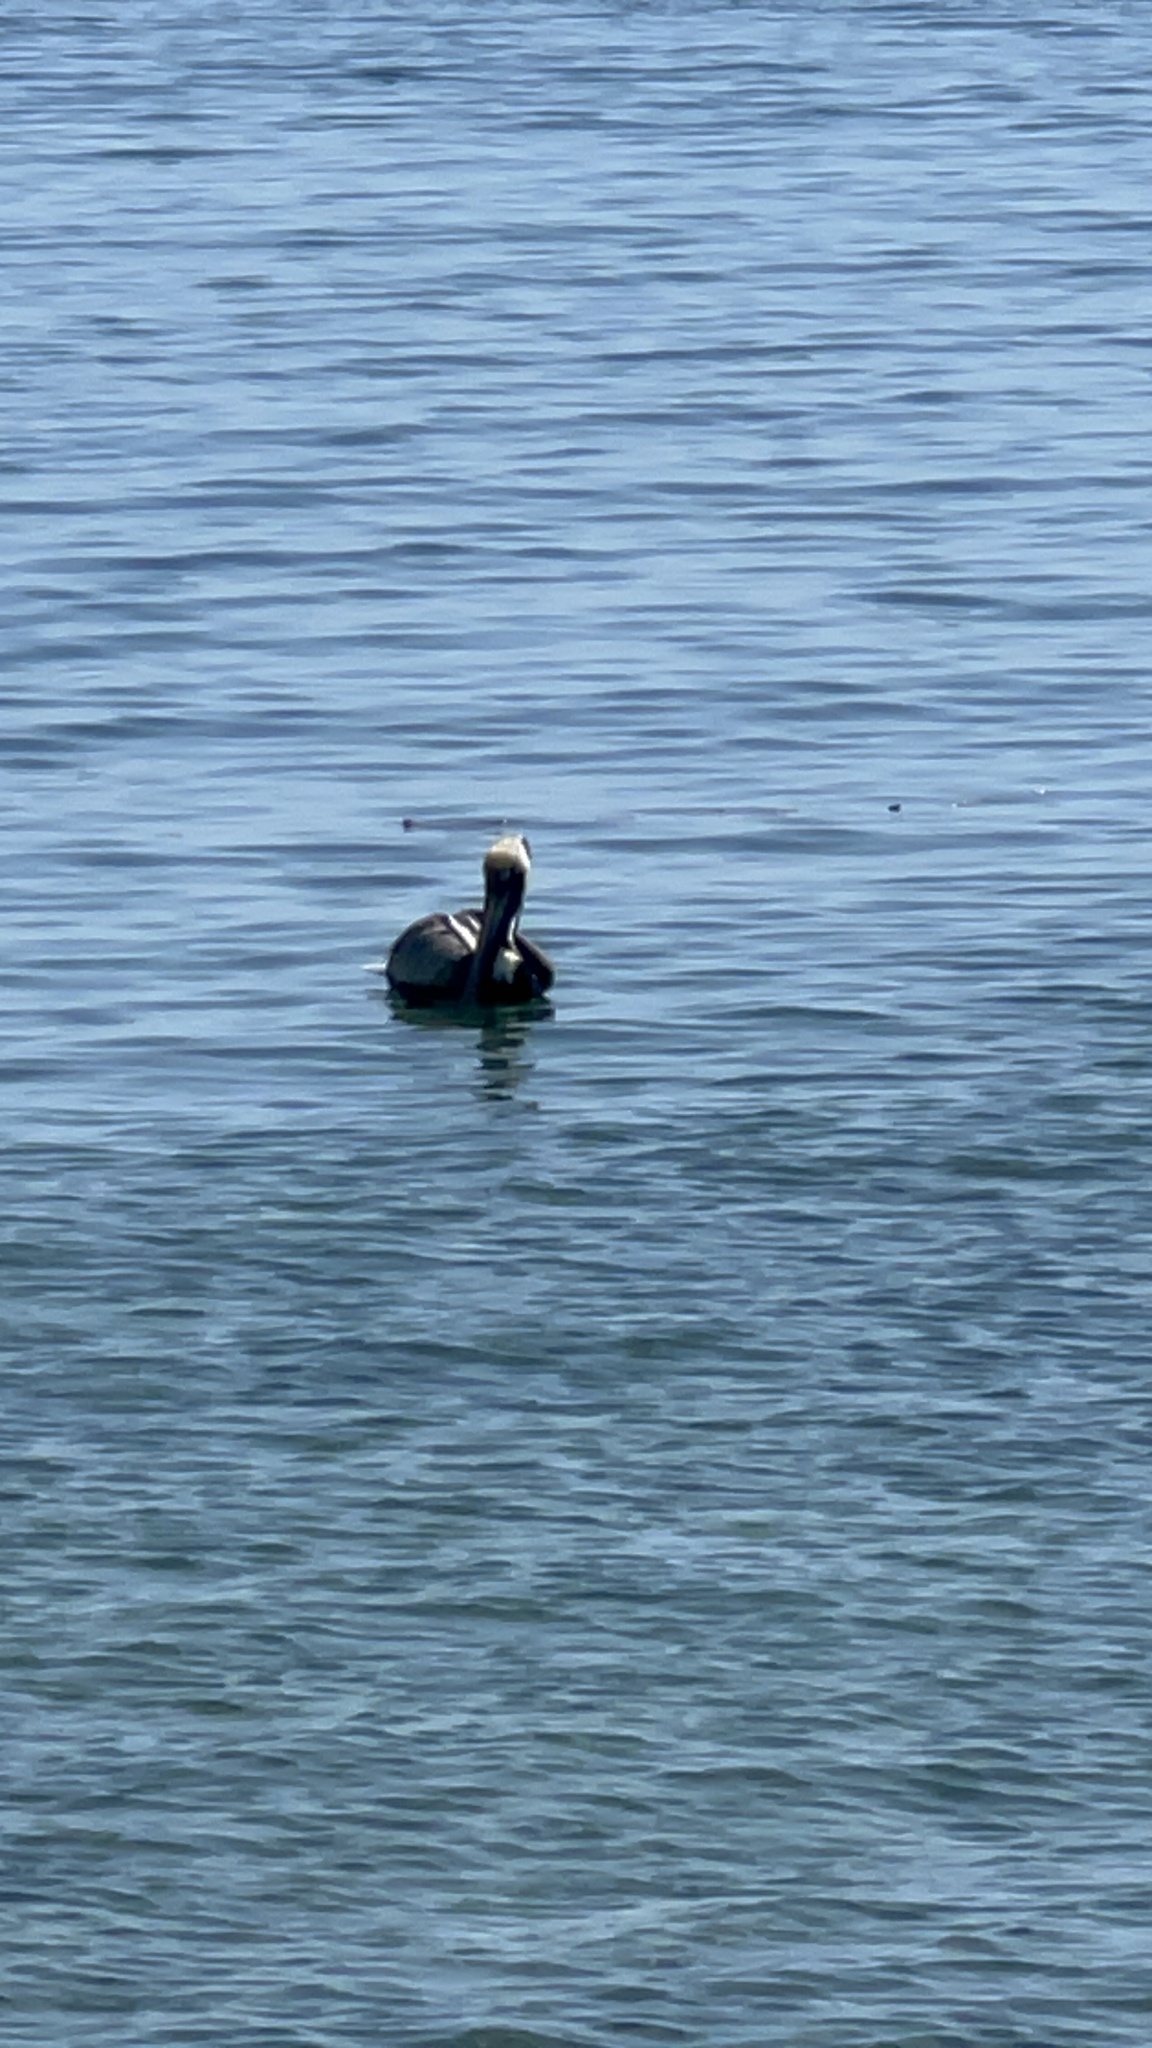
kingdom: Animalia
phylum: Chordata
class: Aves
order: Pelecaniformes
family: Pelecanidae
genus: Pelecanus
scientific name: Pelecanus occidentalis
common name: Brown pelican
